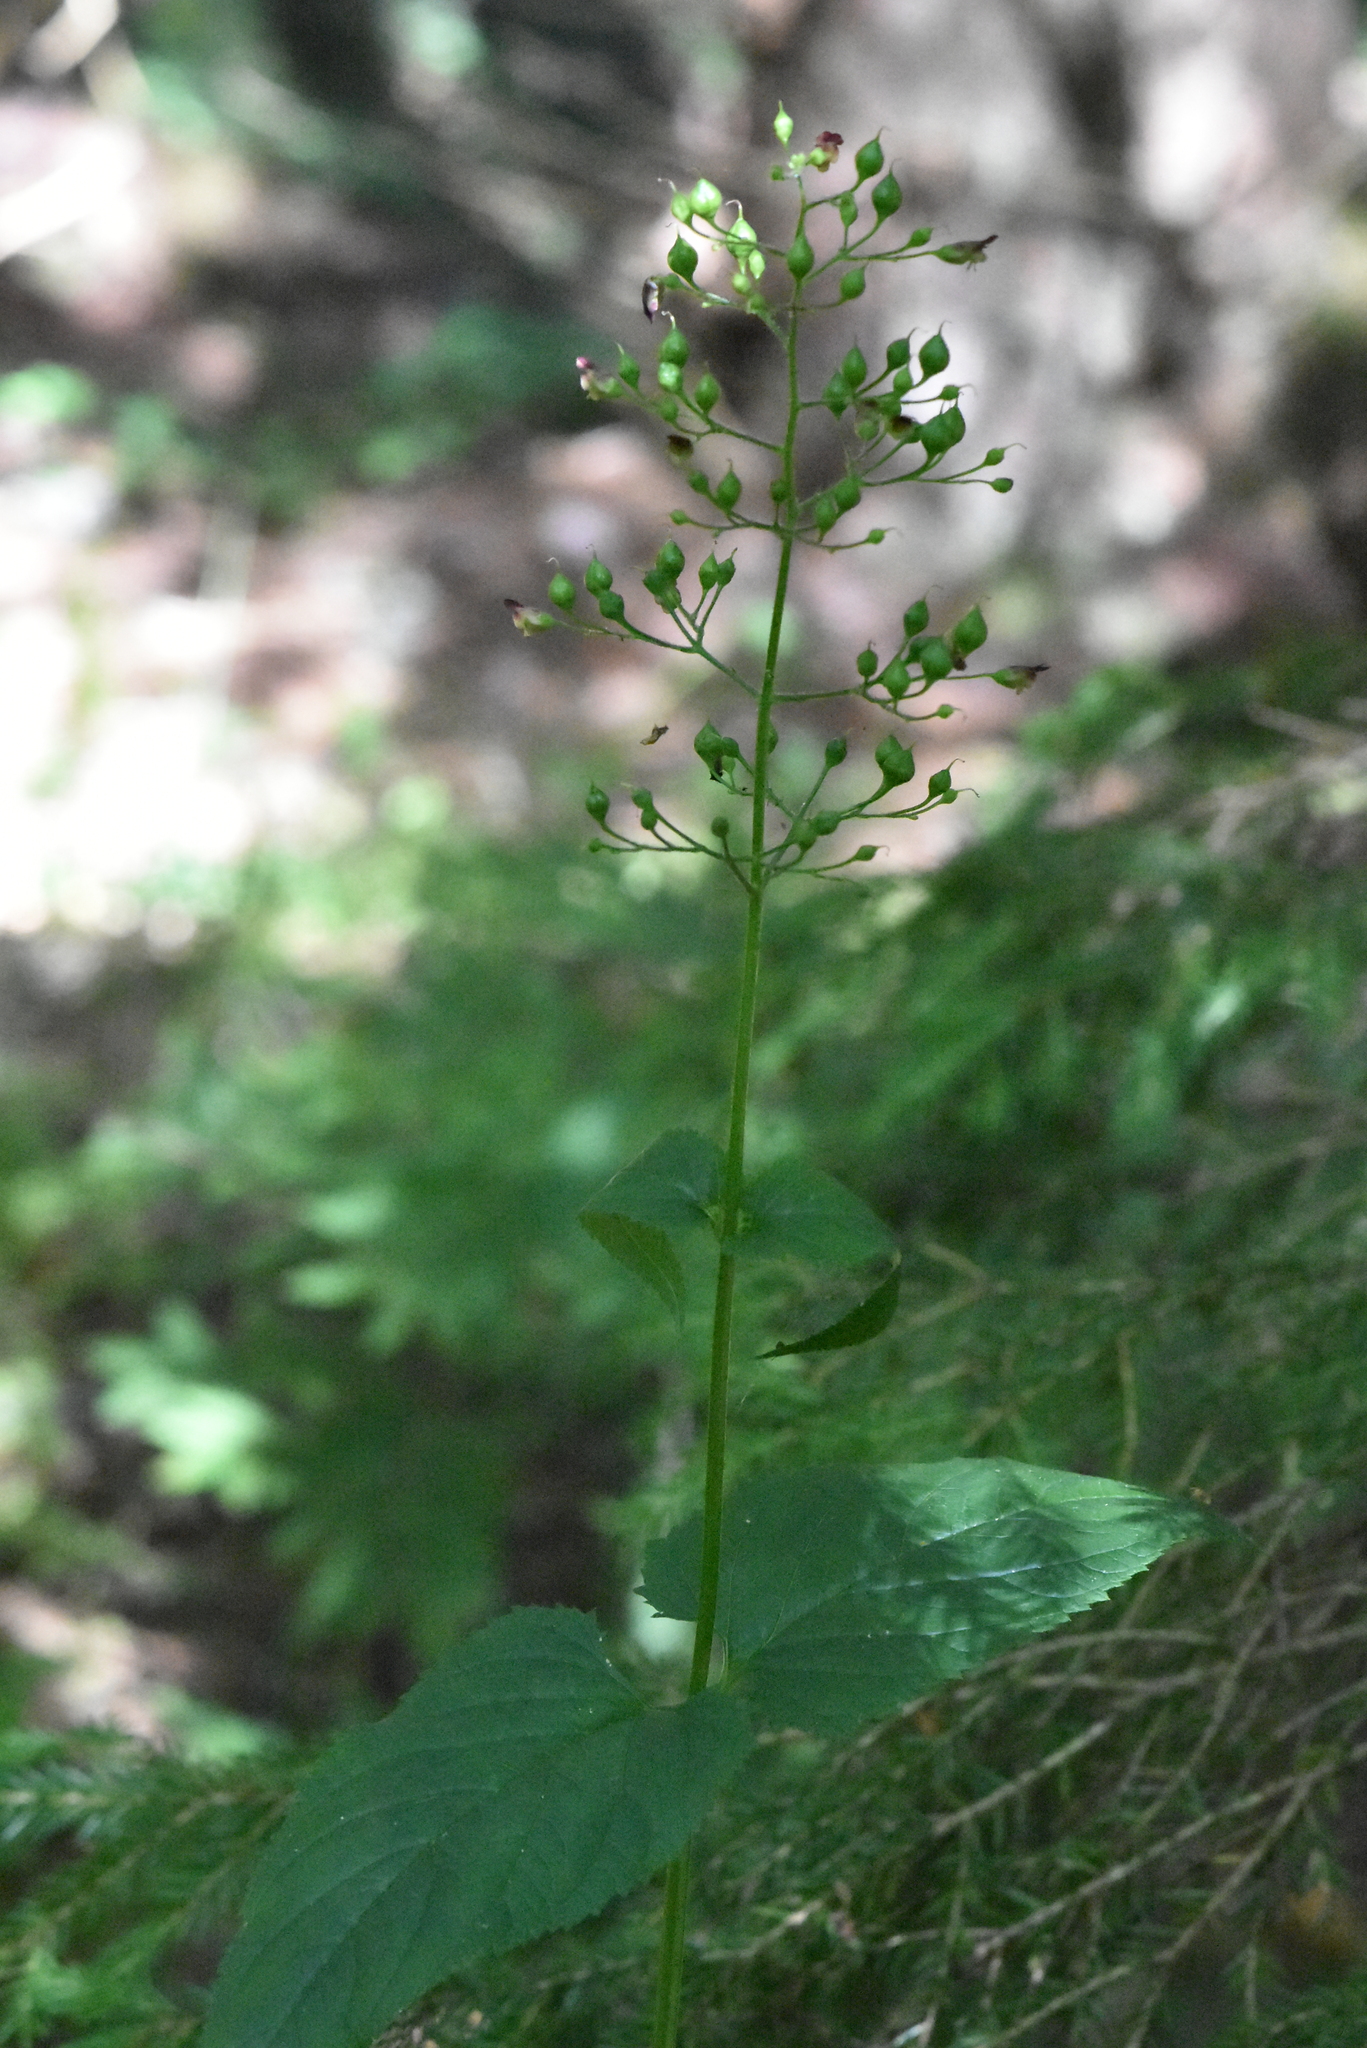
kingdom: Plantae
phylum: Tracheophyta
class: Magnoliopsida
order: Lamiales
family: Scrophulariaceae
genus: Scrophularia
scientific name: Scrophularia nodosa
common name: Common figwort
